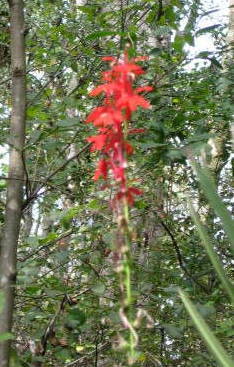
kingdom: Plantae
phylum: Tracheophyta
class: Magnoliopsida
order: Asterales
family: Campanulaceae
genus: Lobelia
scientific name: Lobelia cardinalis
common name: Cardinal flower
